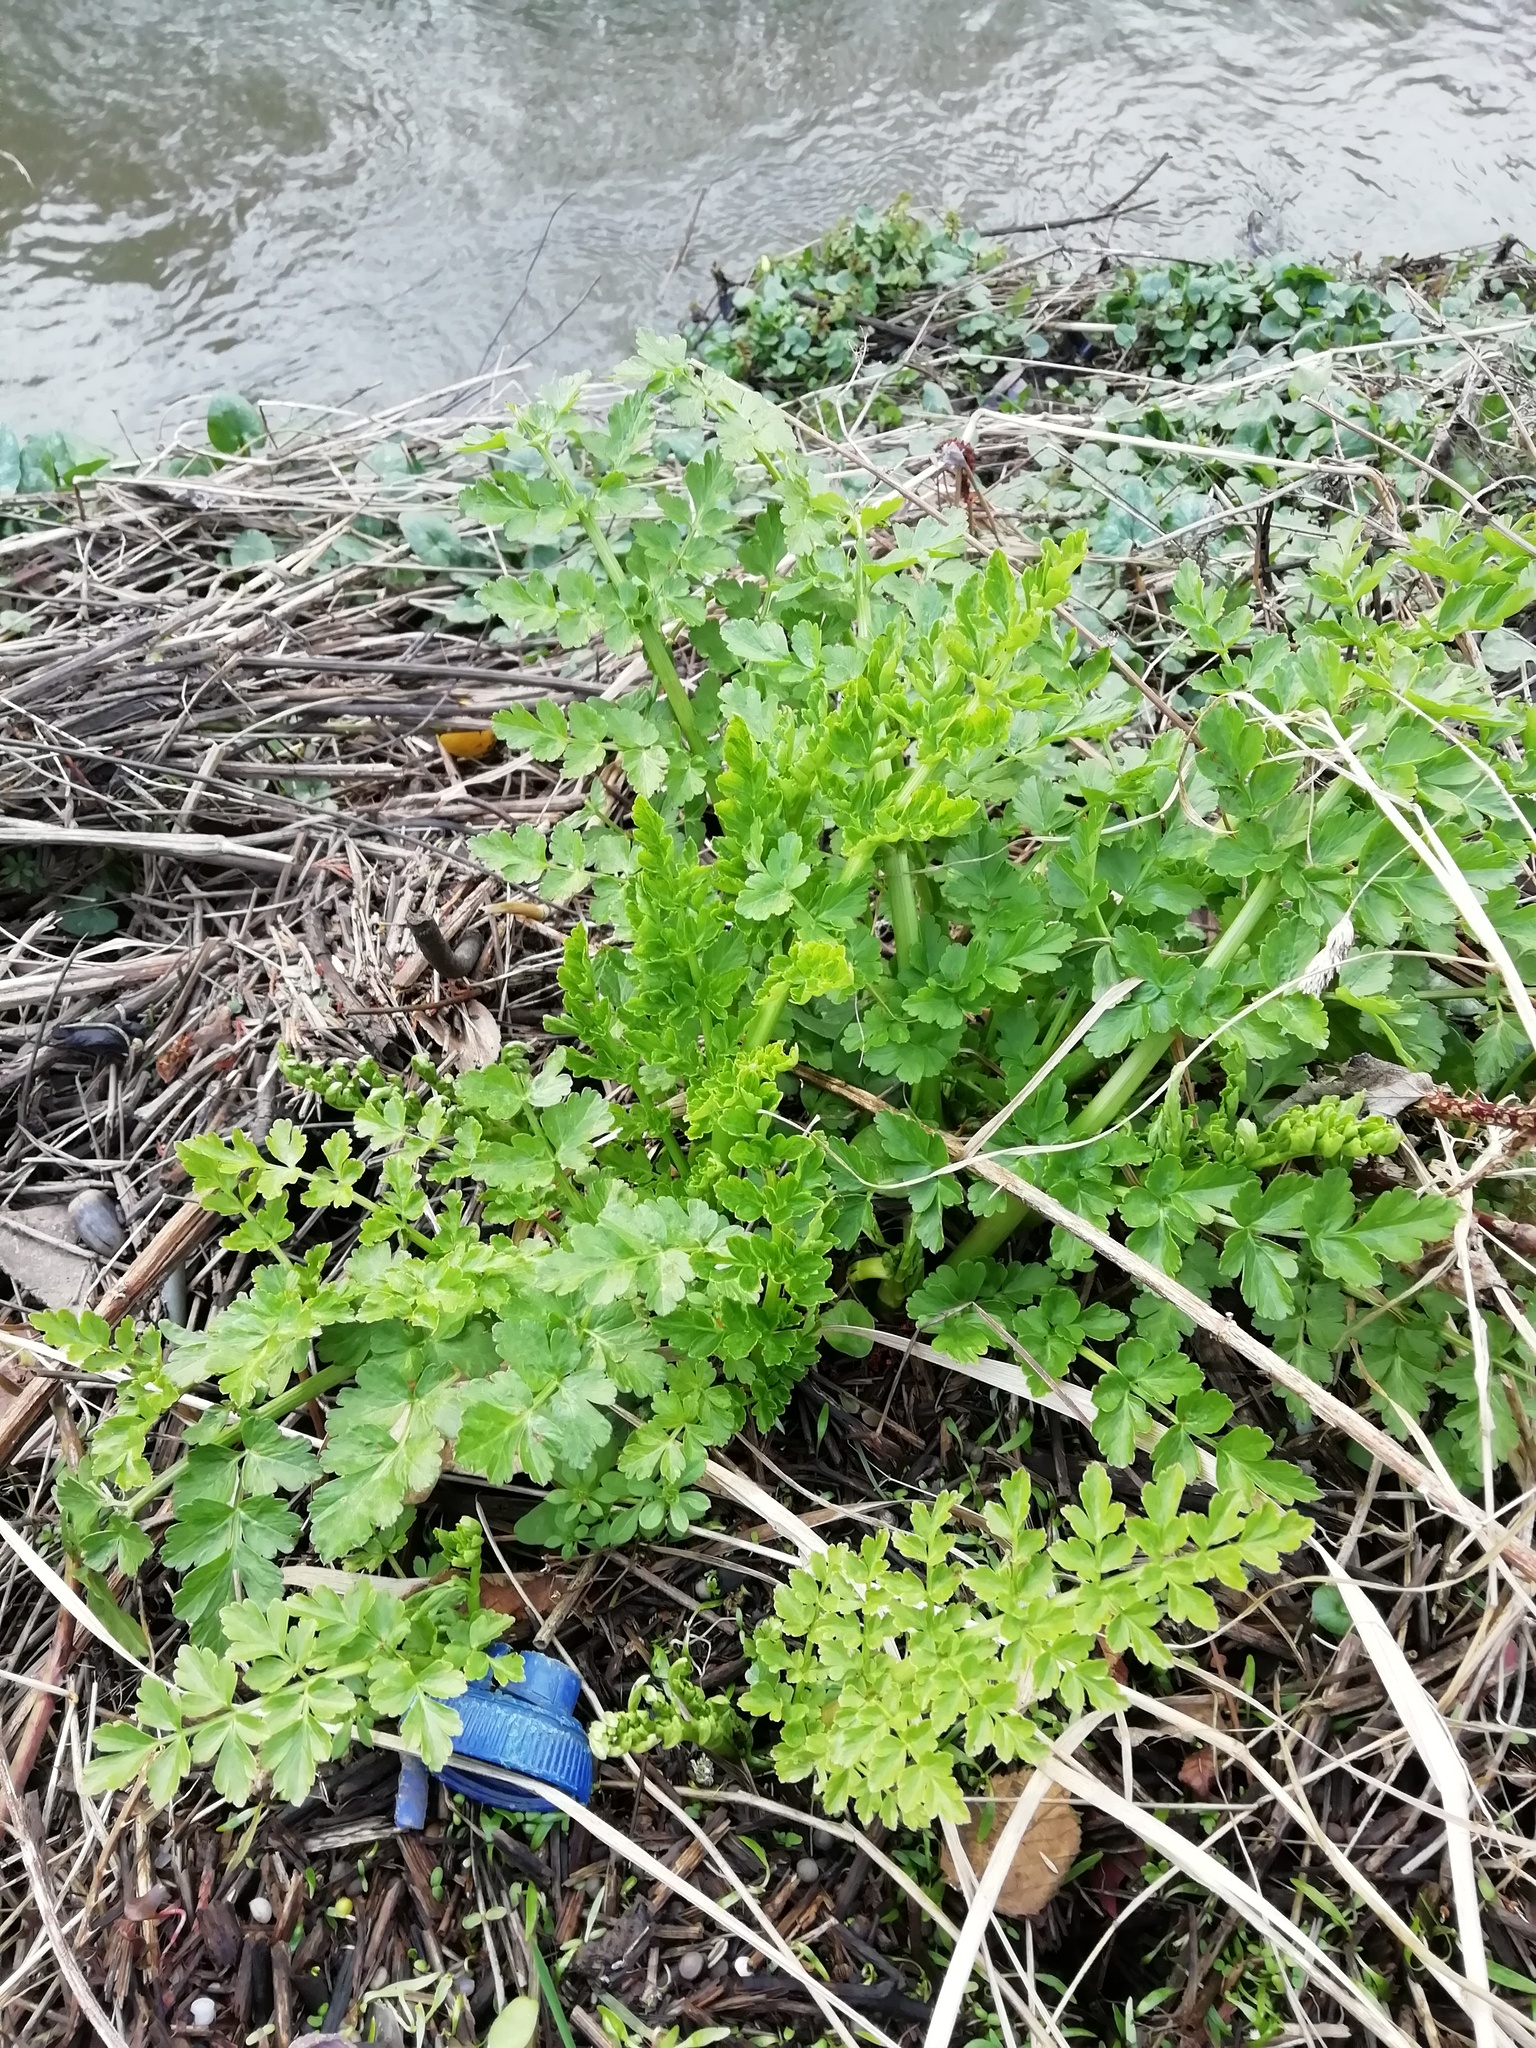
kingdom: Plantae
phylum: Tracheophyta
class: Magnoliopsida
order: Apiales
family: Apiaceae
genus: Oenanthe
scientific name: Oenanthe crocata
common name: Hemlock water-dropwort
